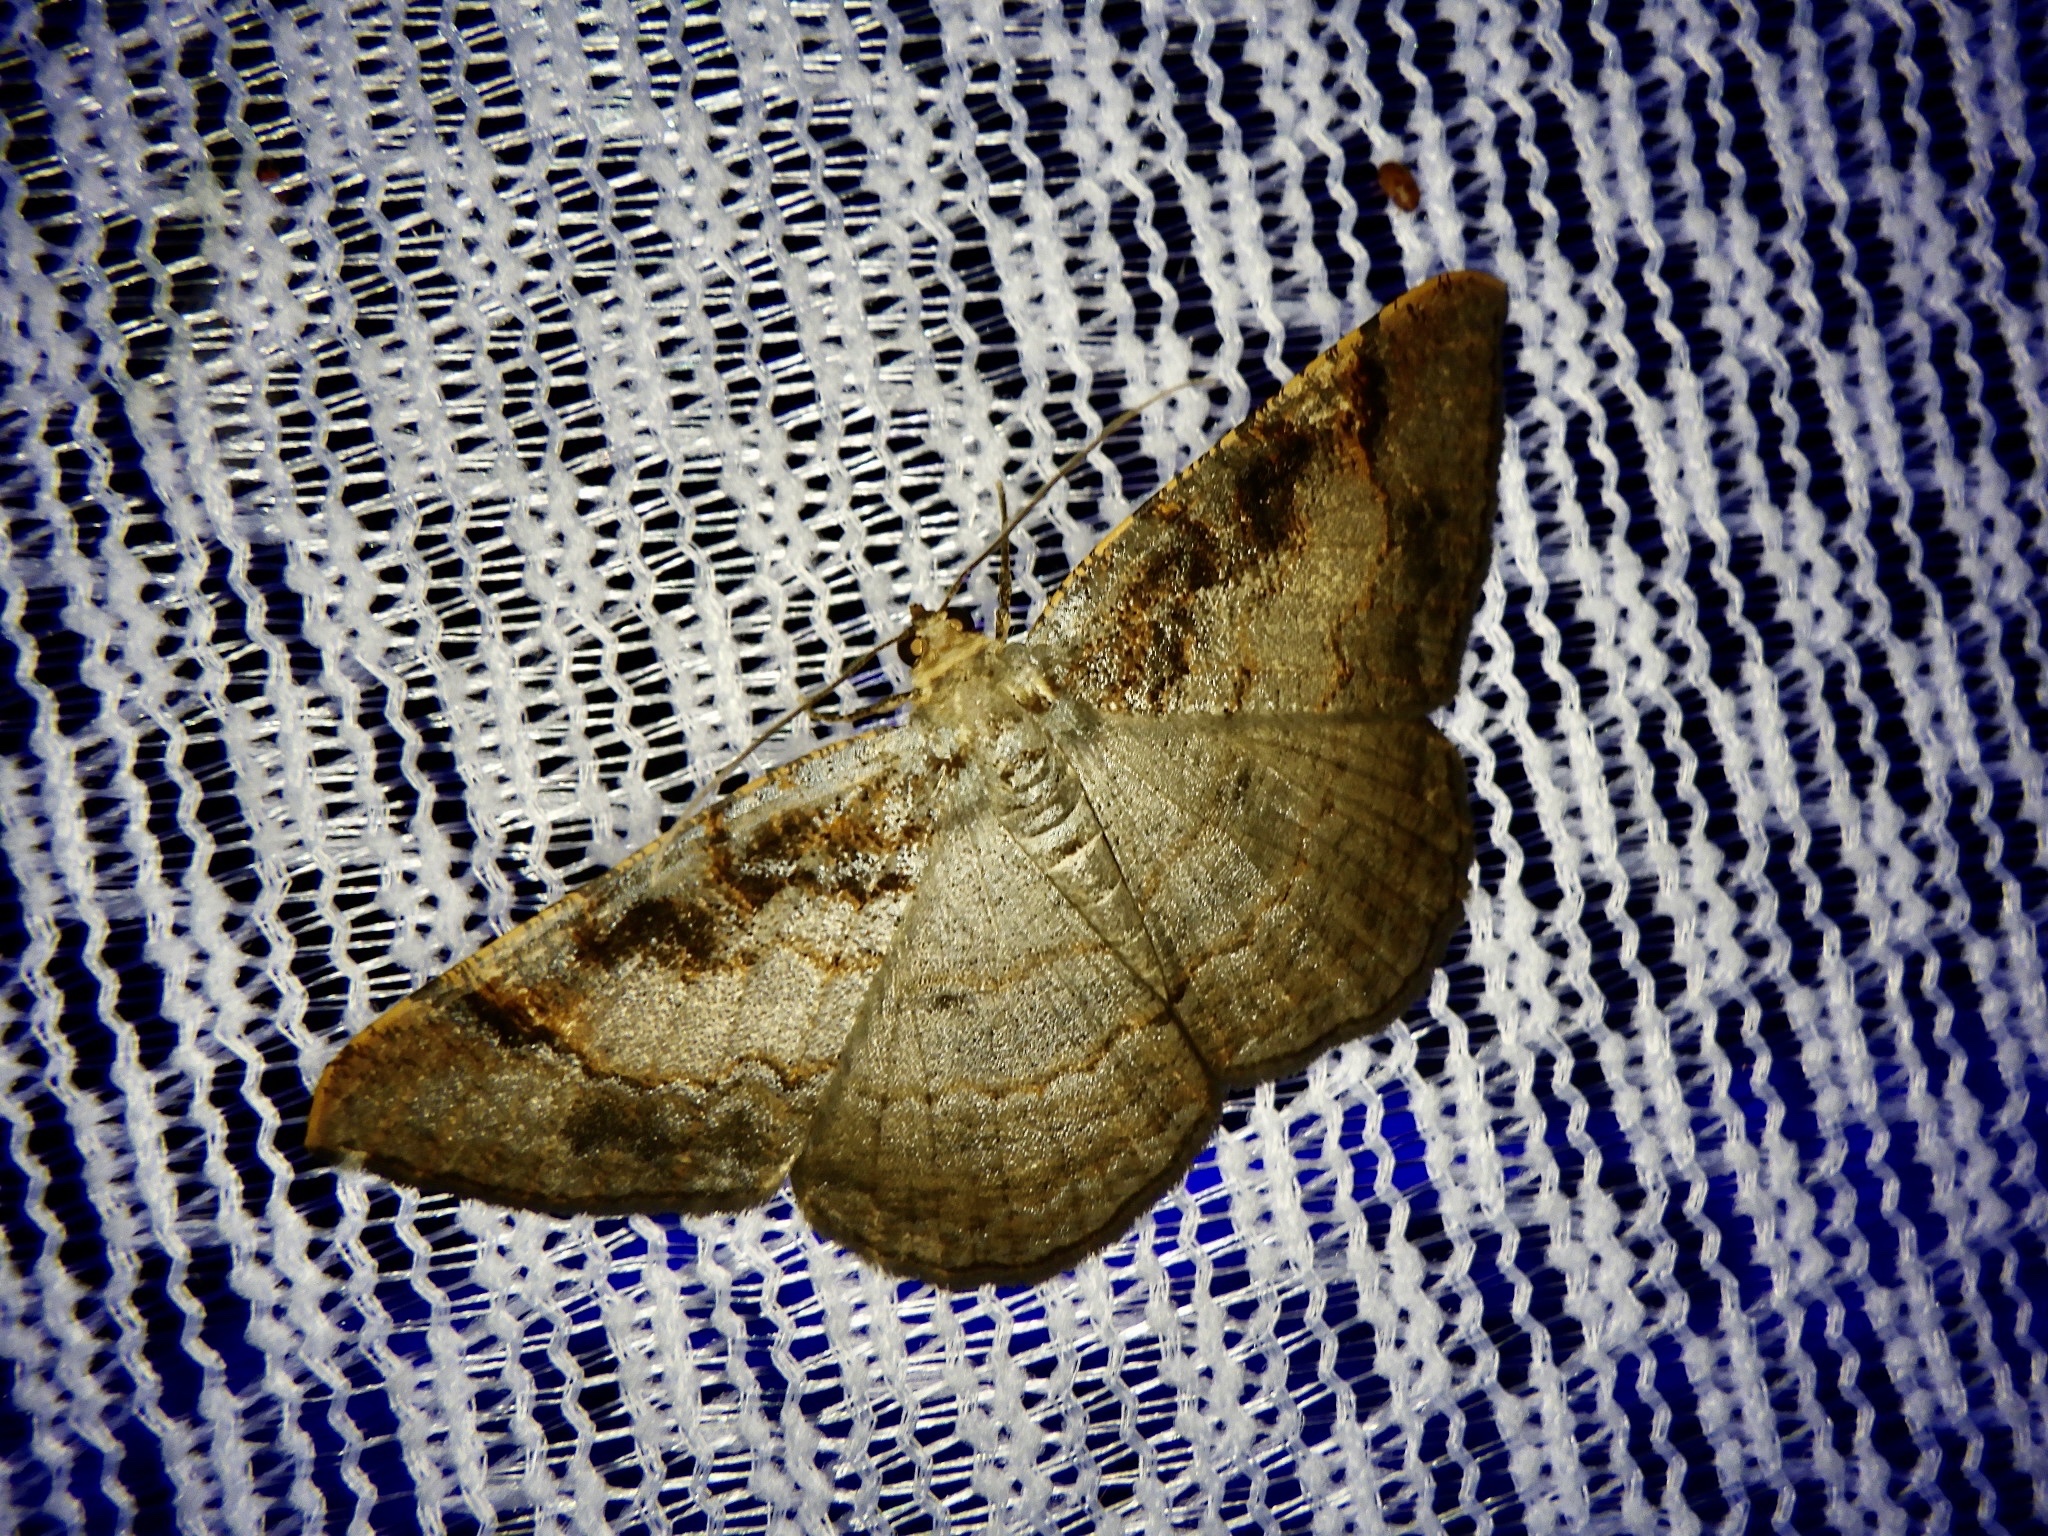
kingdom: Animalia
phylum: Arthropoda
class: Insecta
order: Lepidoptera
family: Geometridae
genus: Hypephyra
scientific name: Hypephyra terrosa
